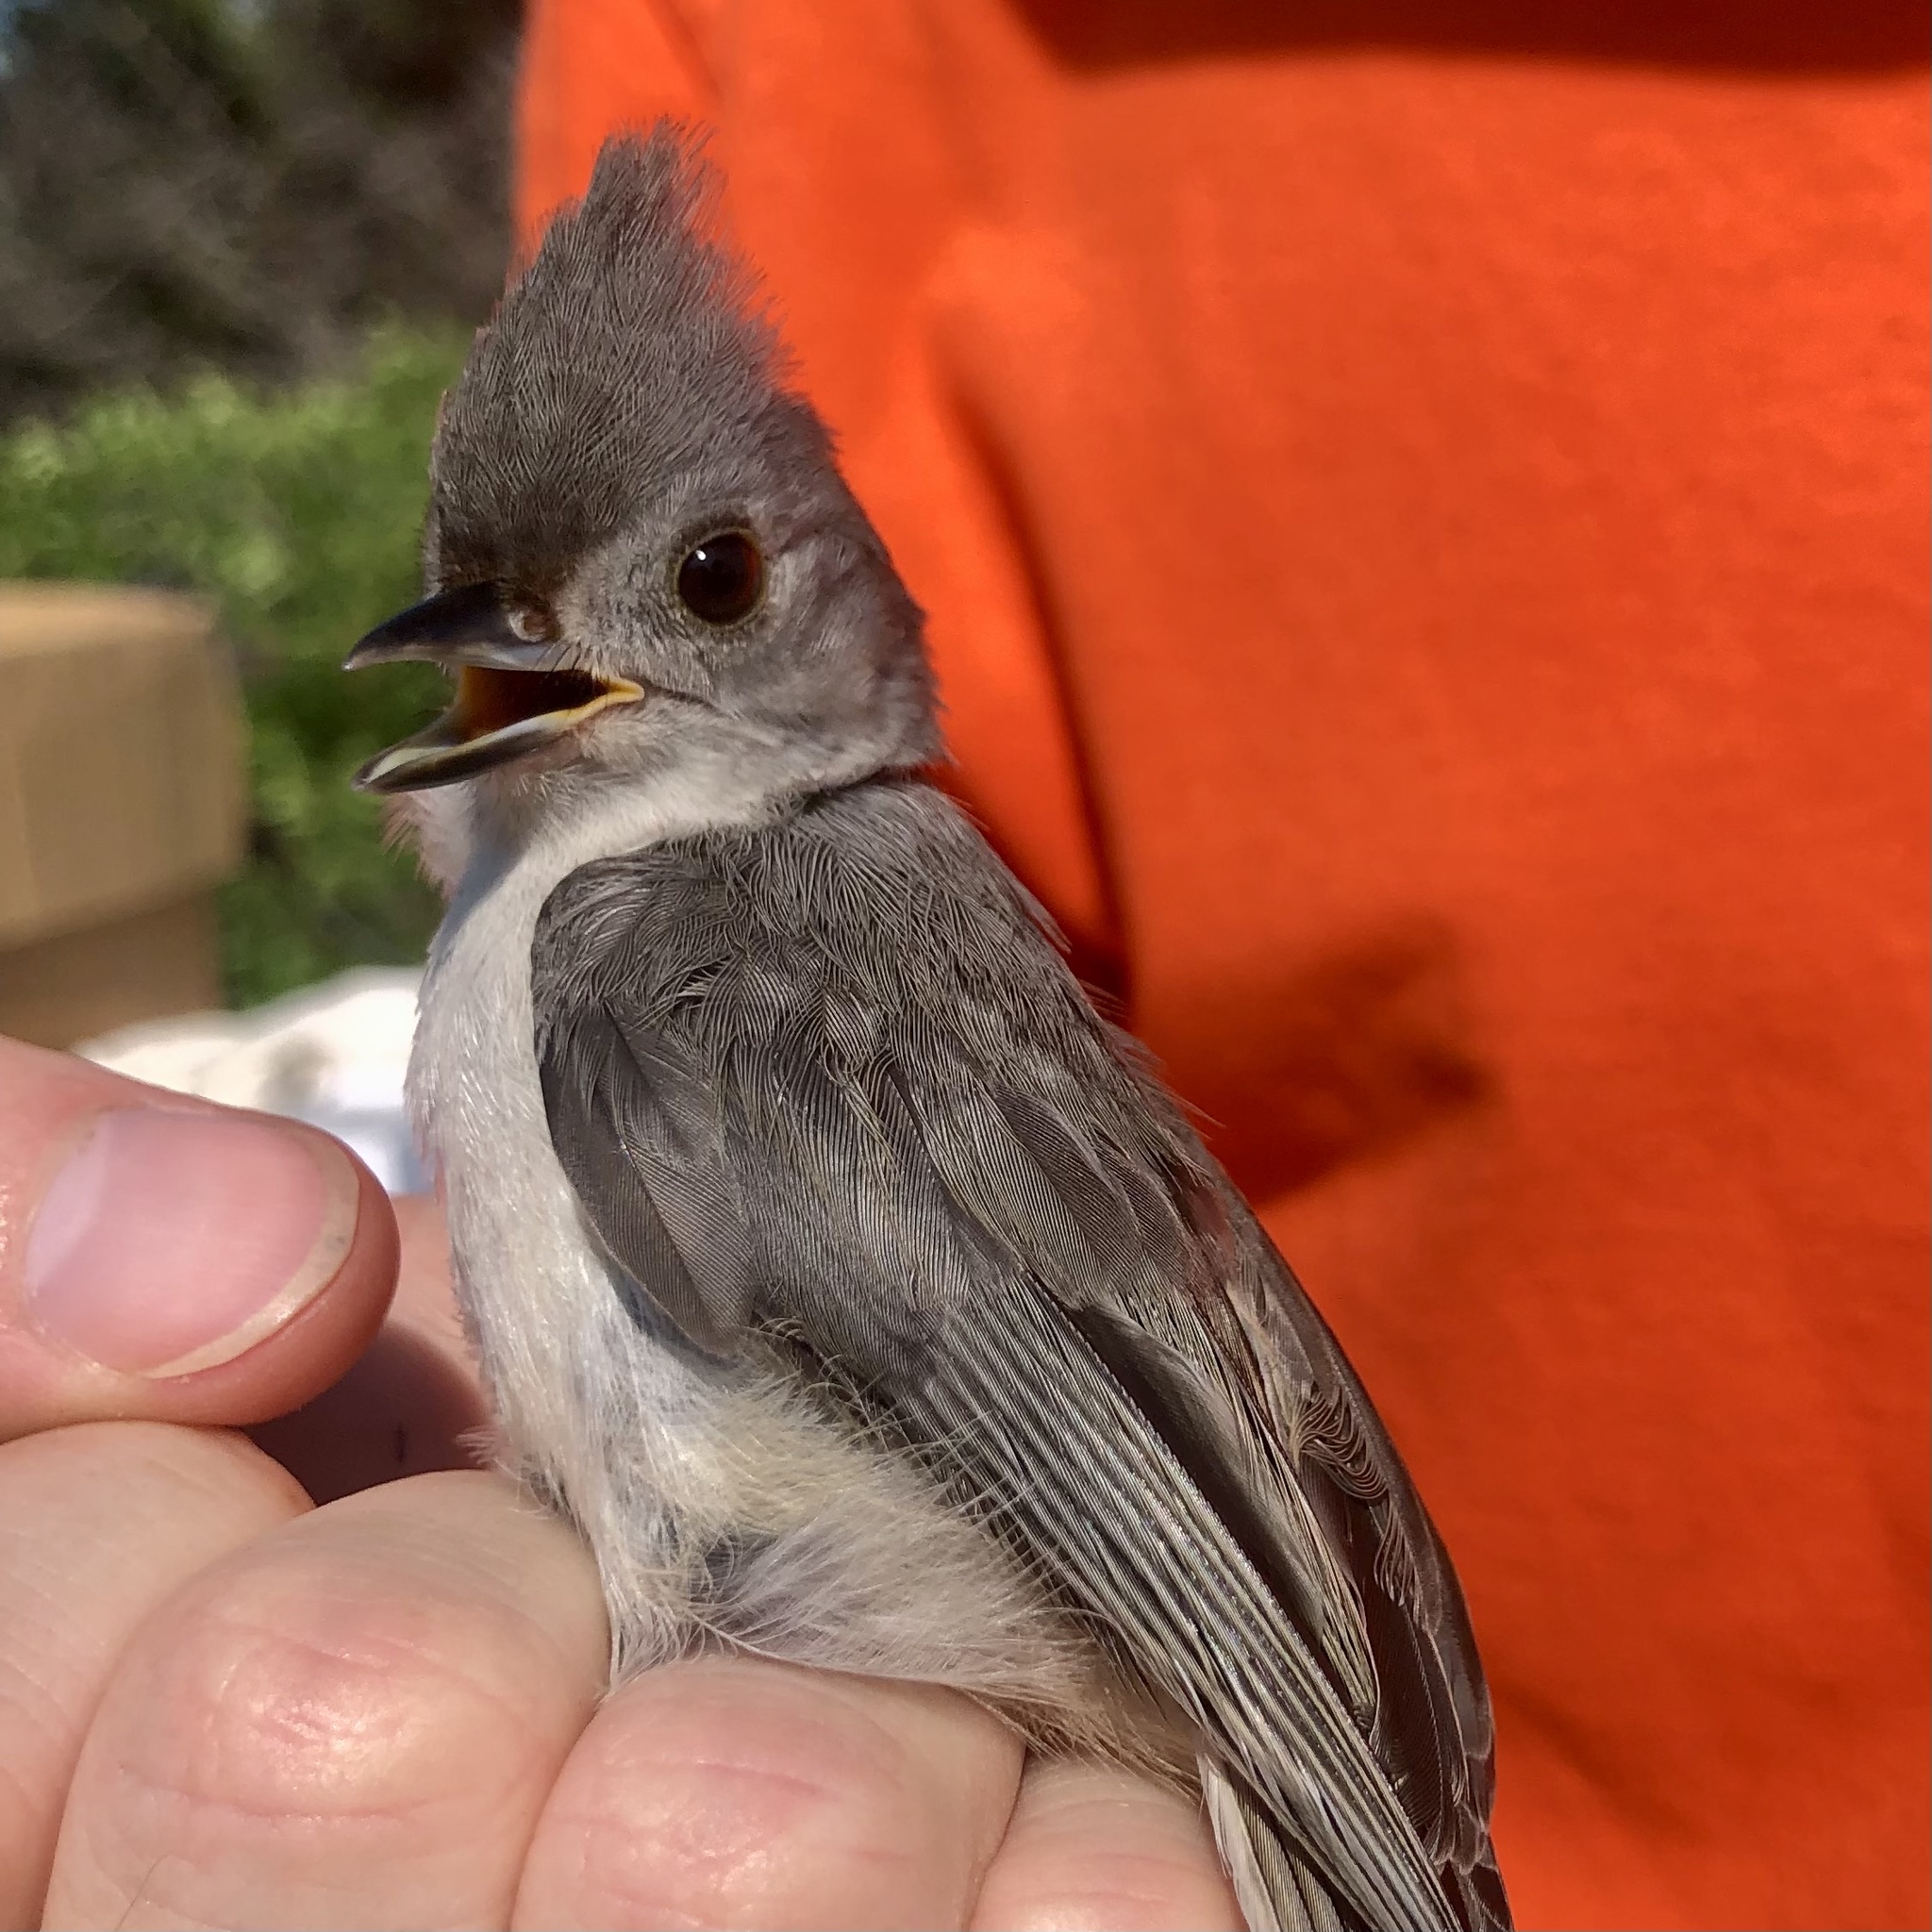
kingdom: Animalia
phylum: Chordata
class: Aves
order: Passeriformes
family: Paridae
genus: Baeolophus
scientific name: Baeolophus bicolor
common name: Tufted titmouse
